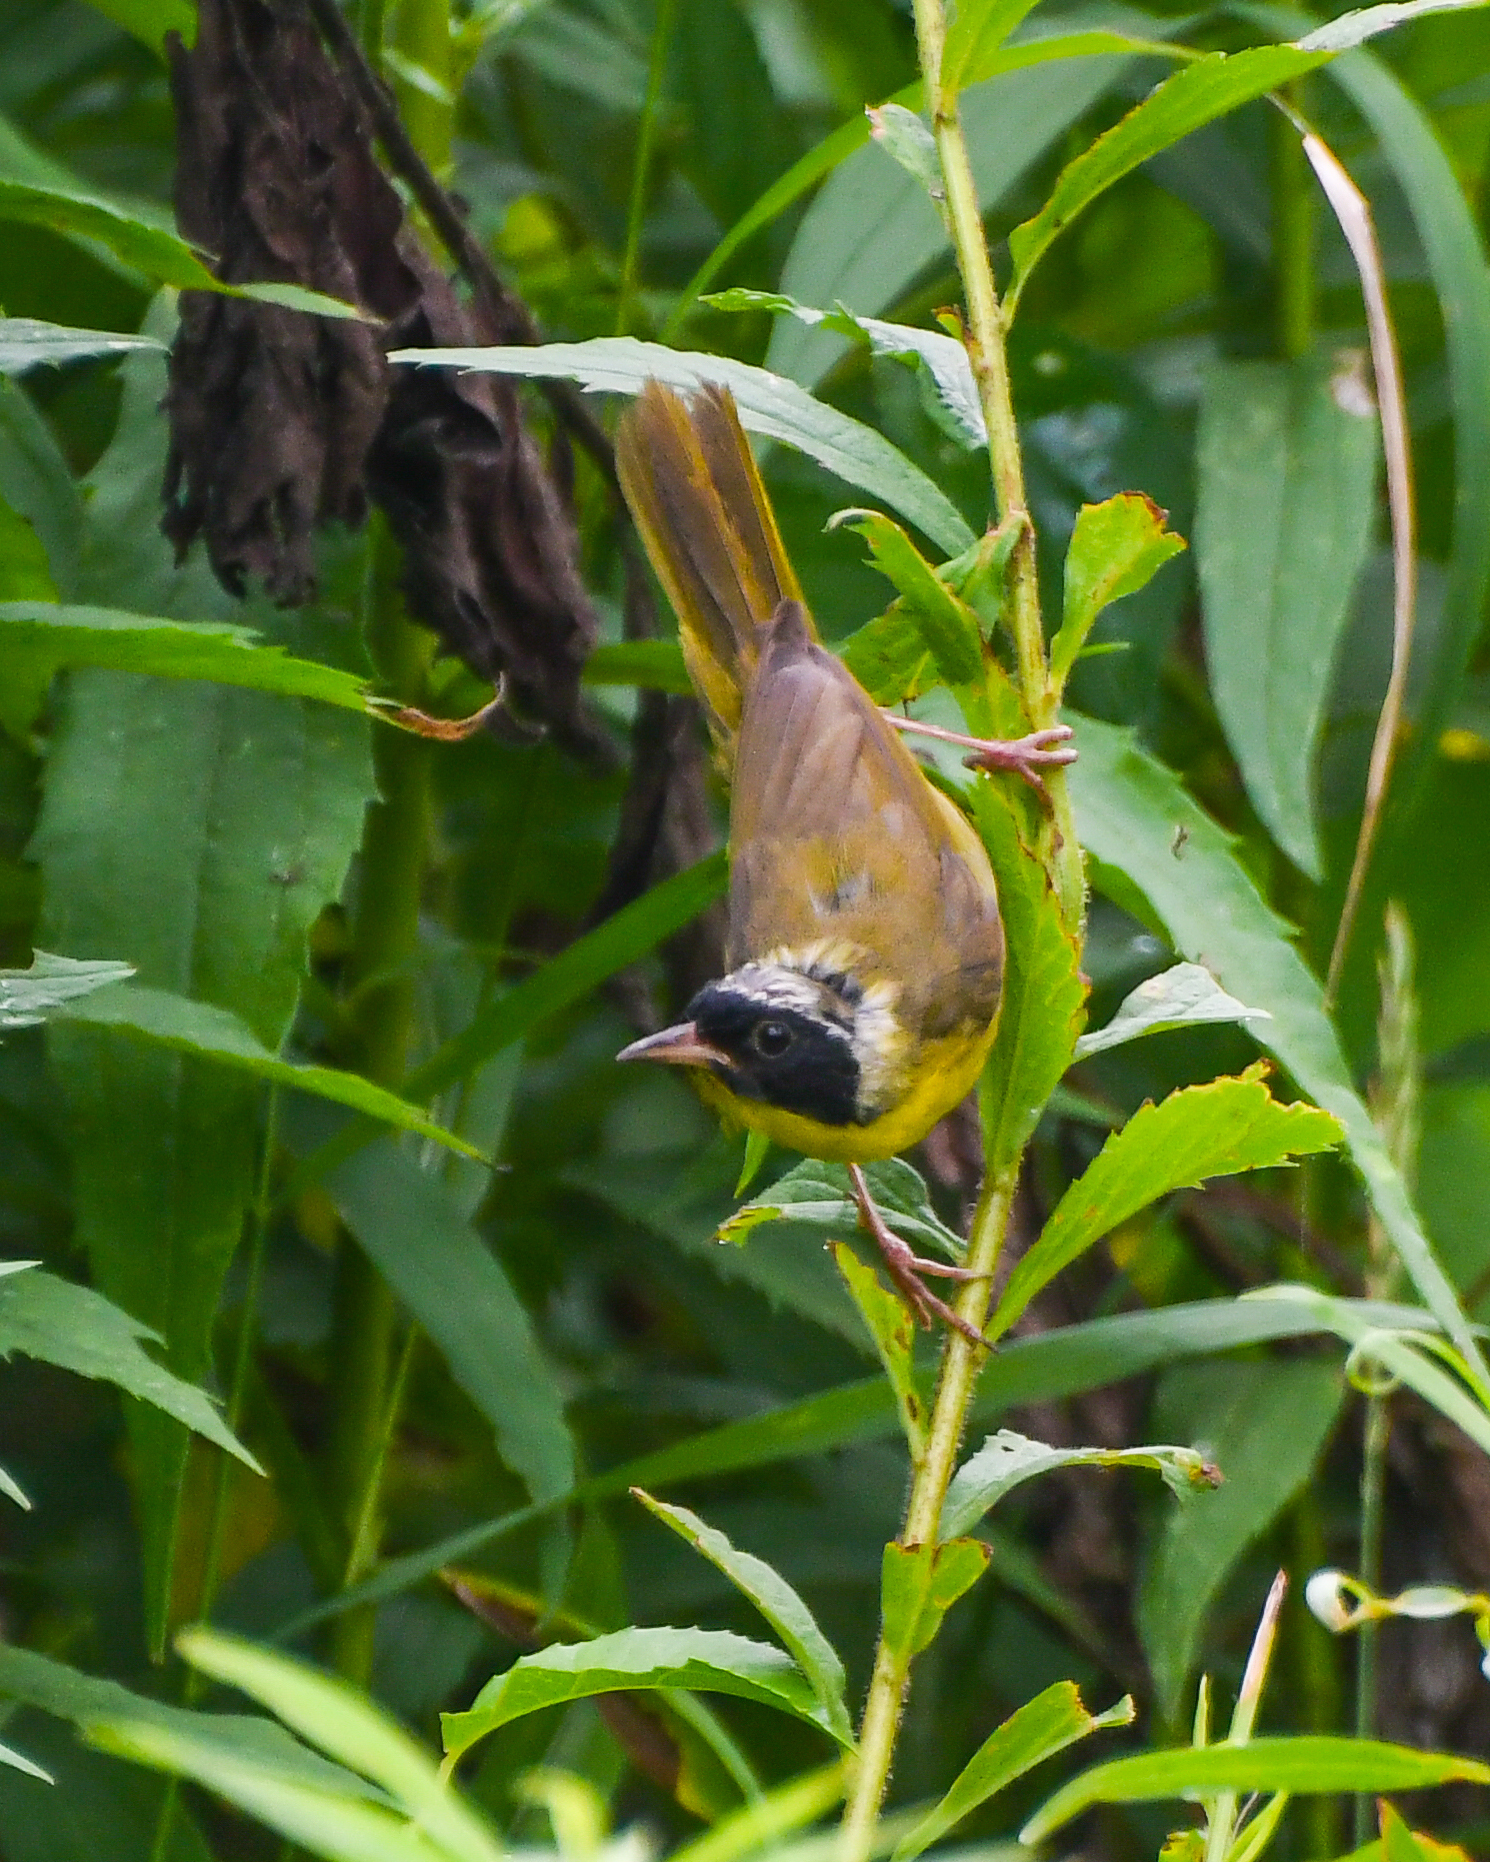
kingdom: Animalia
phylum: Chordata
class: Aves
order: Passeriformes
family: Parulidae
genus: Geothlypis
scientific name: Geothlypis trichas
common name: Common yellowthroat
